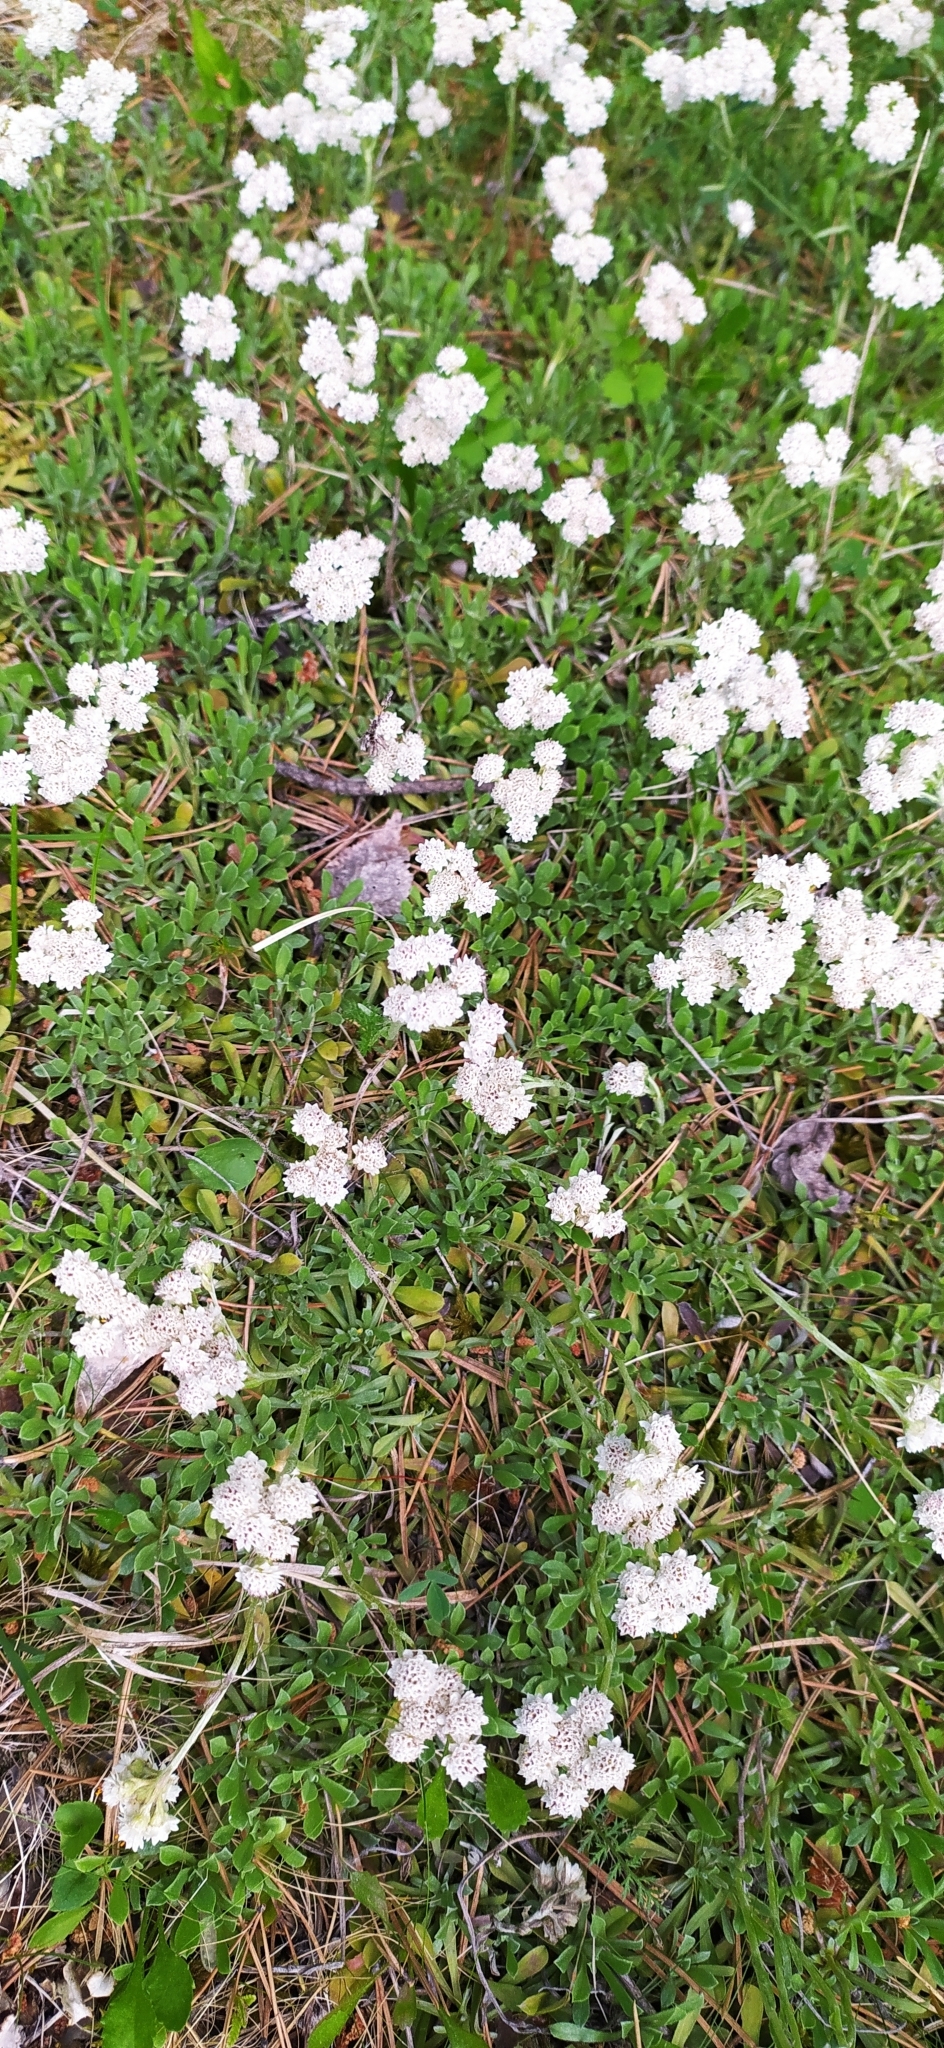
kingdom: Plantae
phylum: Tracheophyta
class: Magnoliopsida
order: Asterales
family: Asteraceae
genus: Antennaria
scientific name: Antennaria dioica
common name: Mountain everlasting
